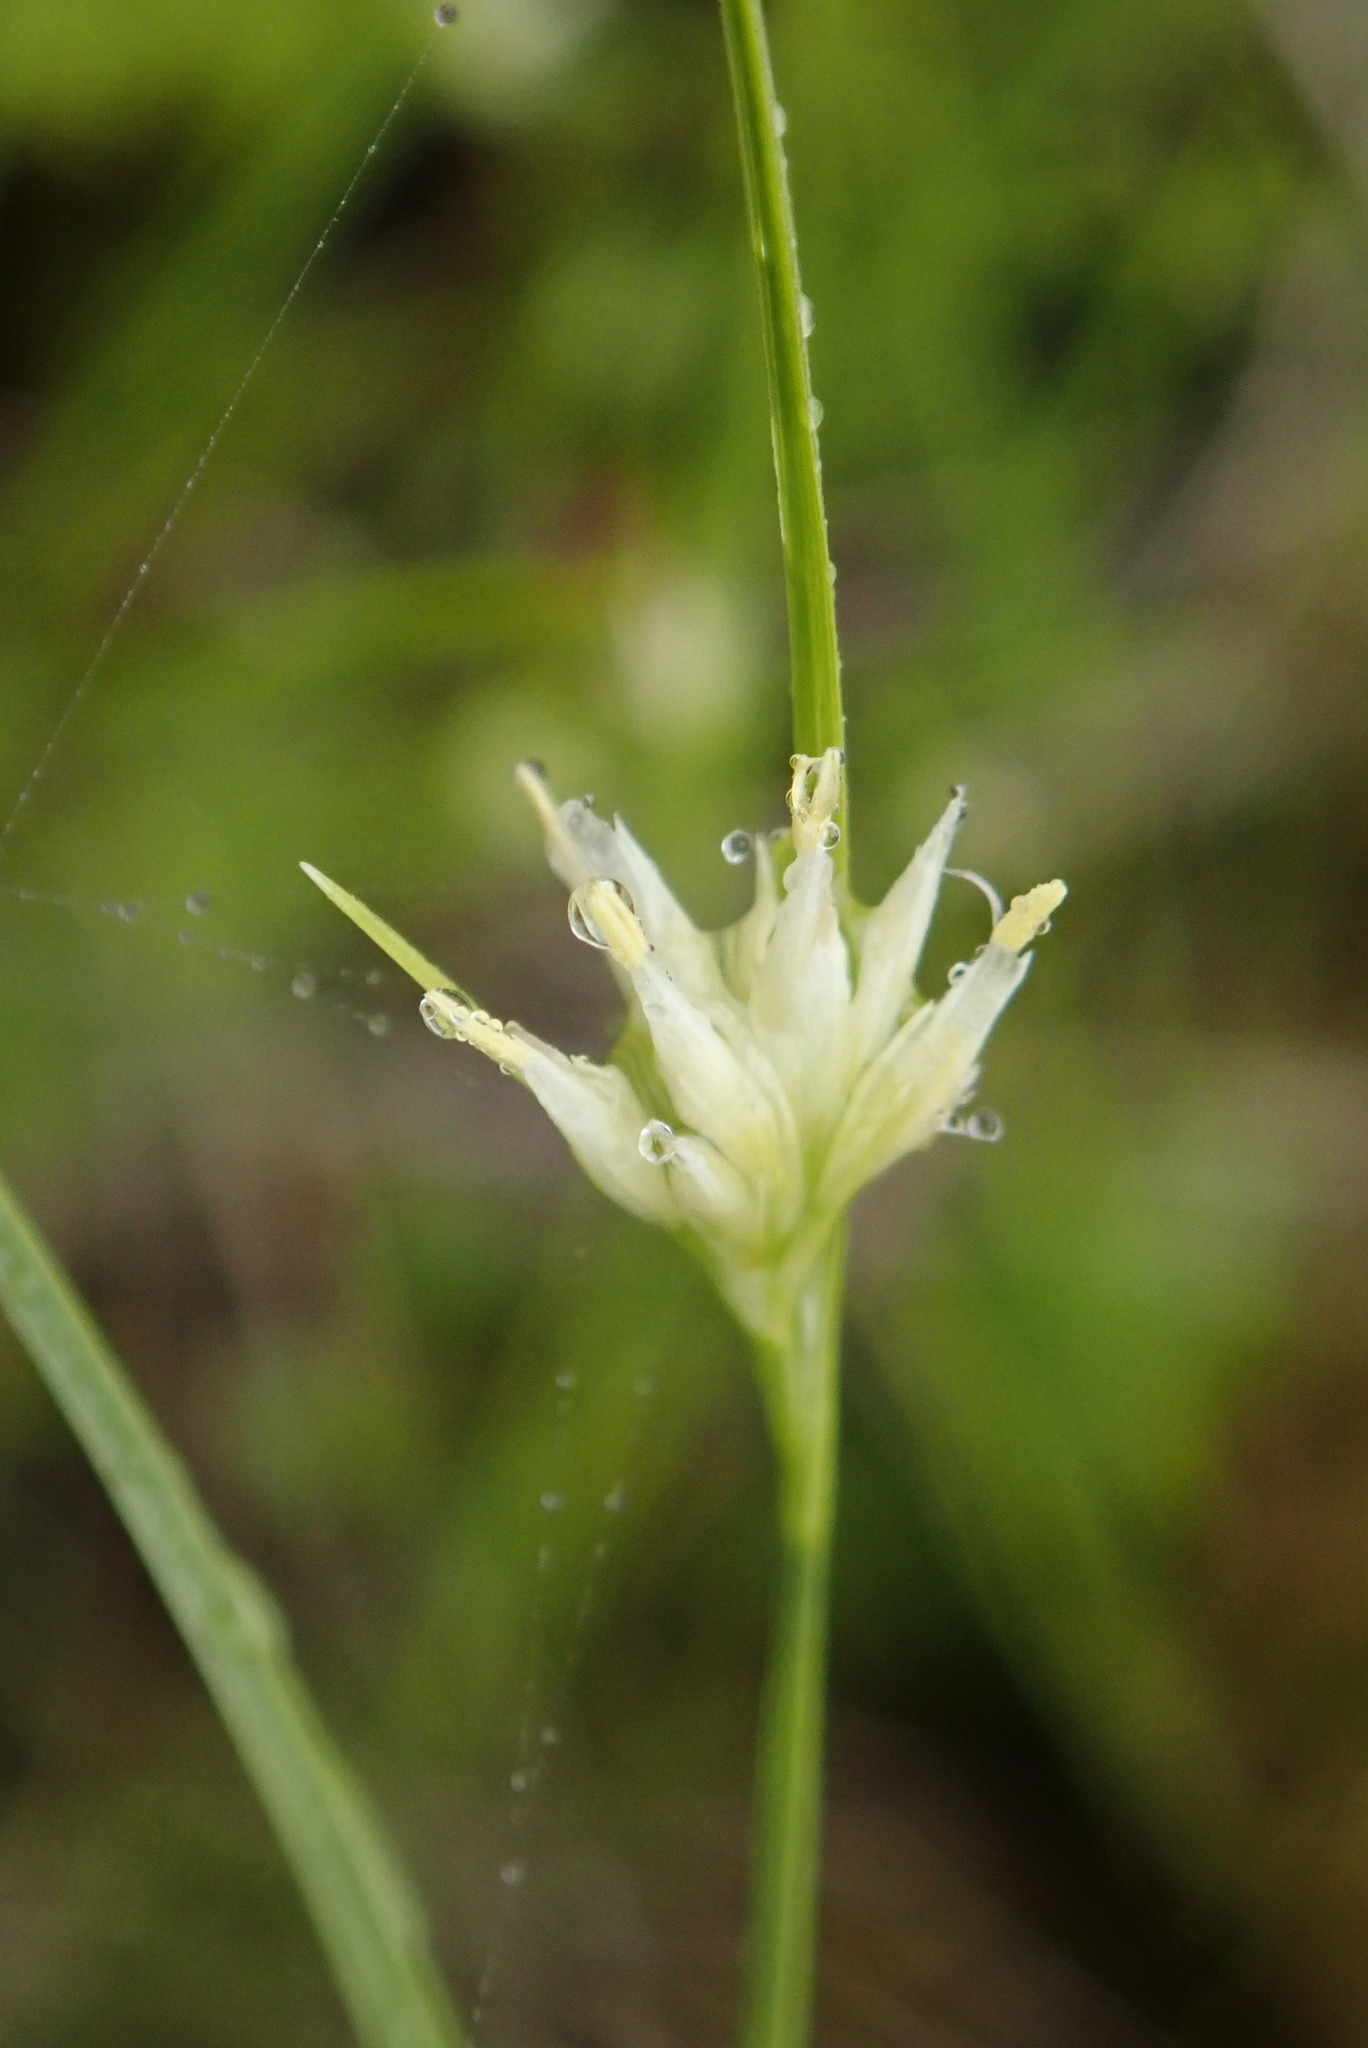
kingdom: Plantae
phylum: Tracheophyta
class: Liliopsida
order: Poales
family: Cyperaceae
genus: Rhynchospora
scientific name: Rhynchospora alba
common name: White beak-sedge
